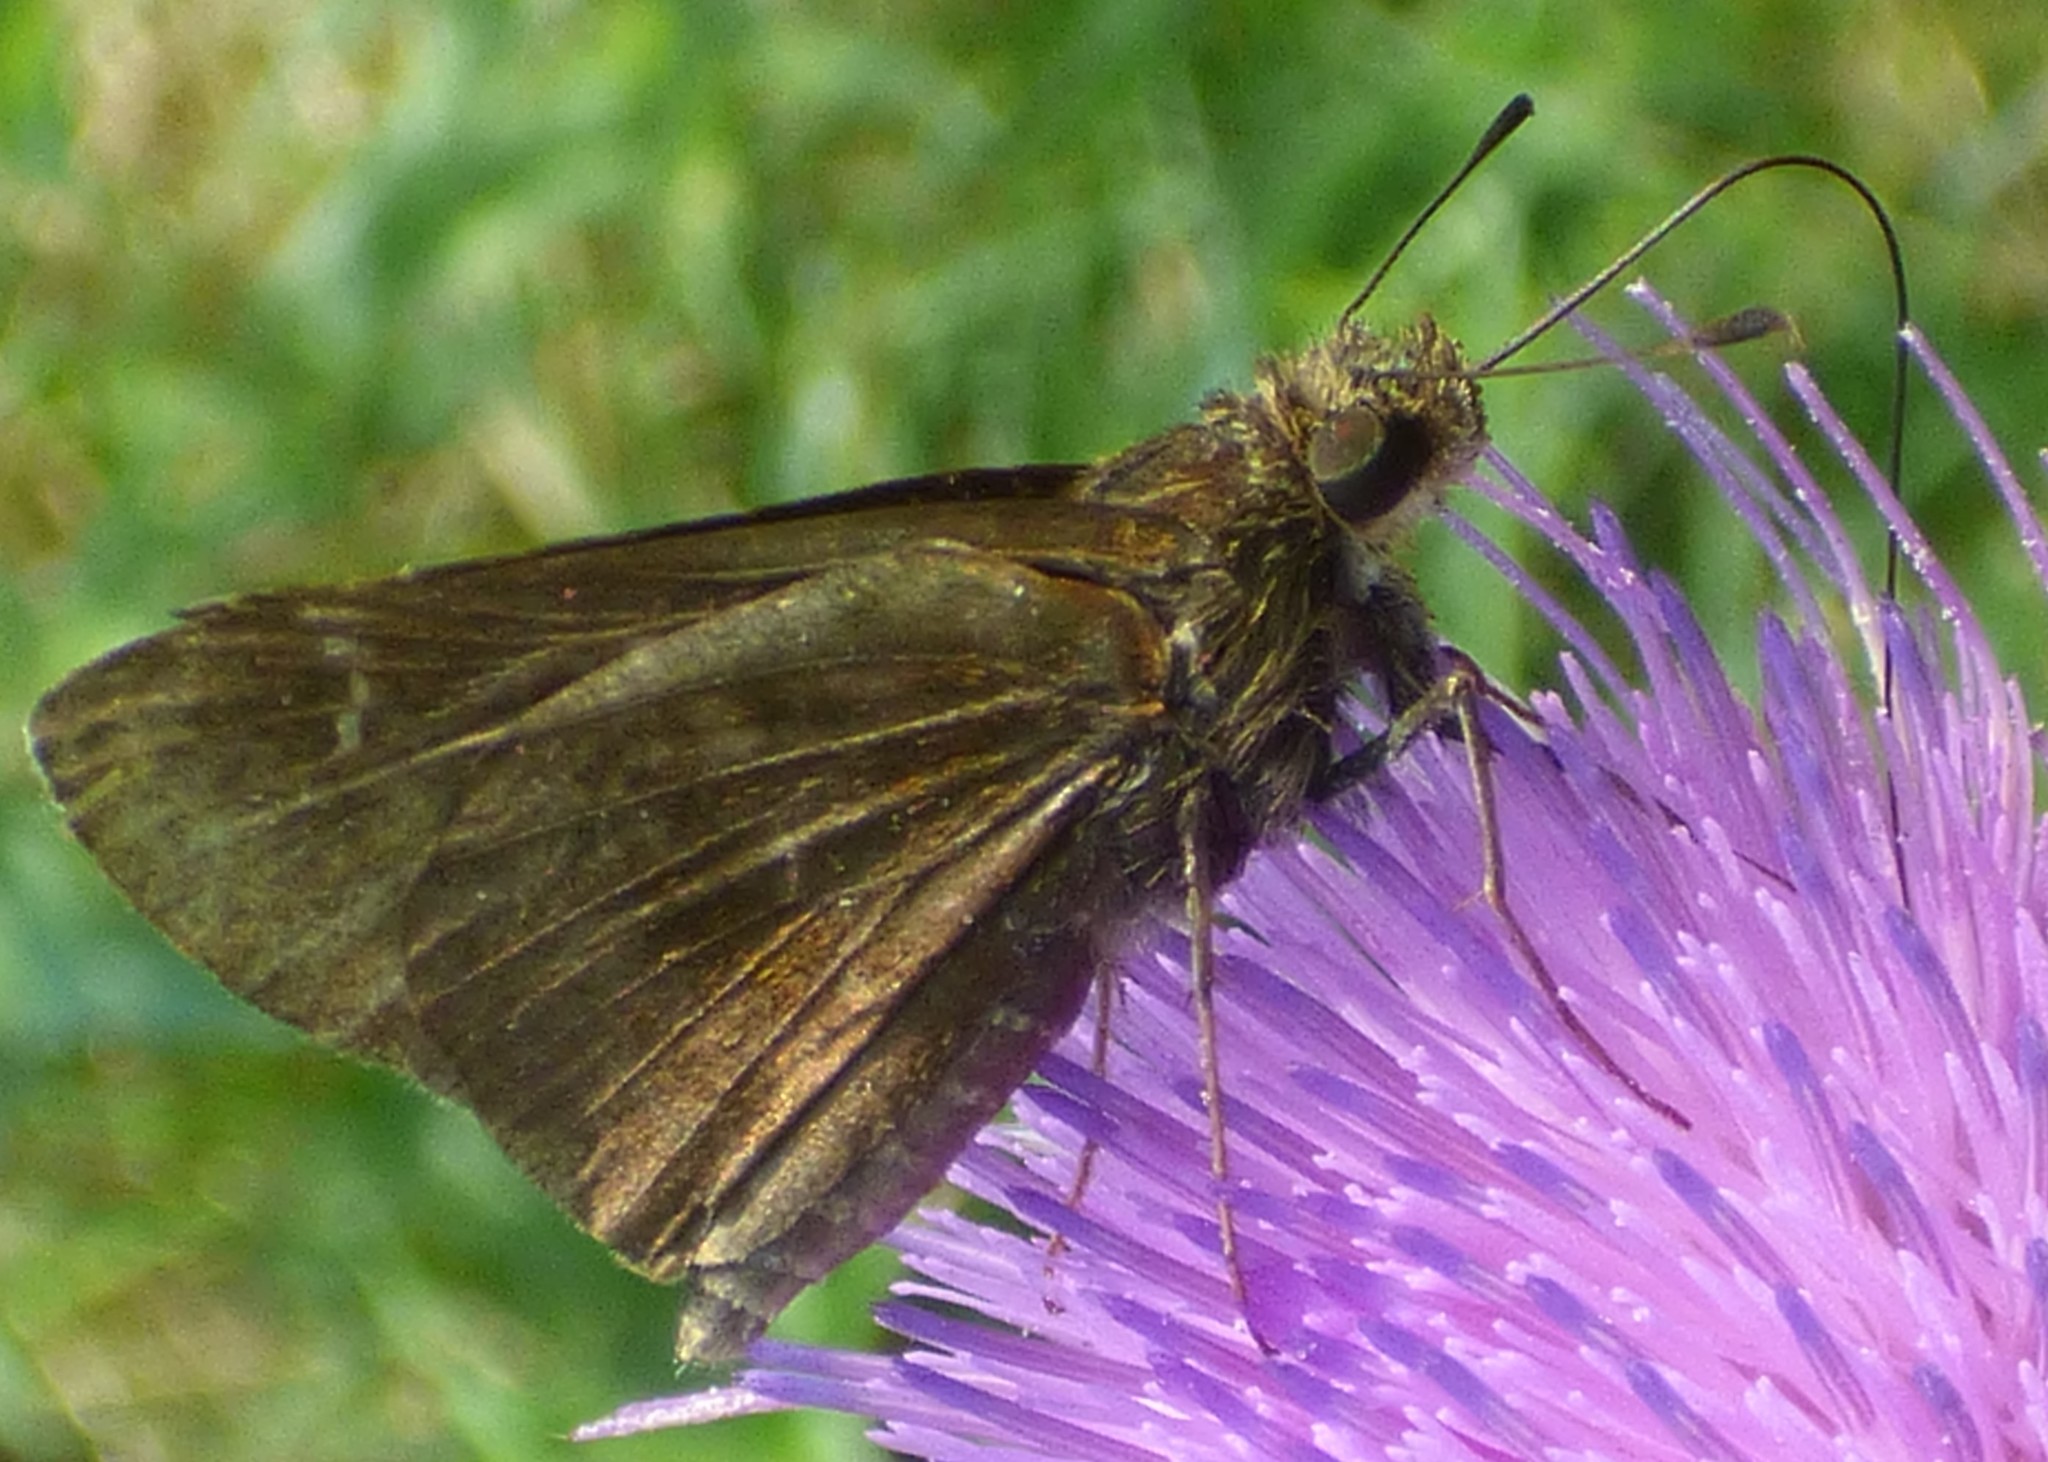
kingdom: Animalia
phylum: Arthropoda
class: Insecta
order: Lepidoptera
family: Hesperiidae
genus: Lerema
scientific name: Lerema accius
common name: Clouded skipper
